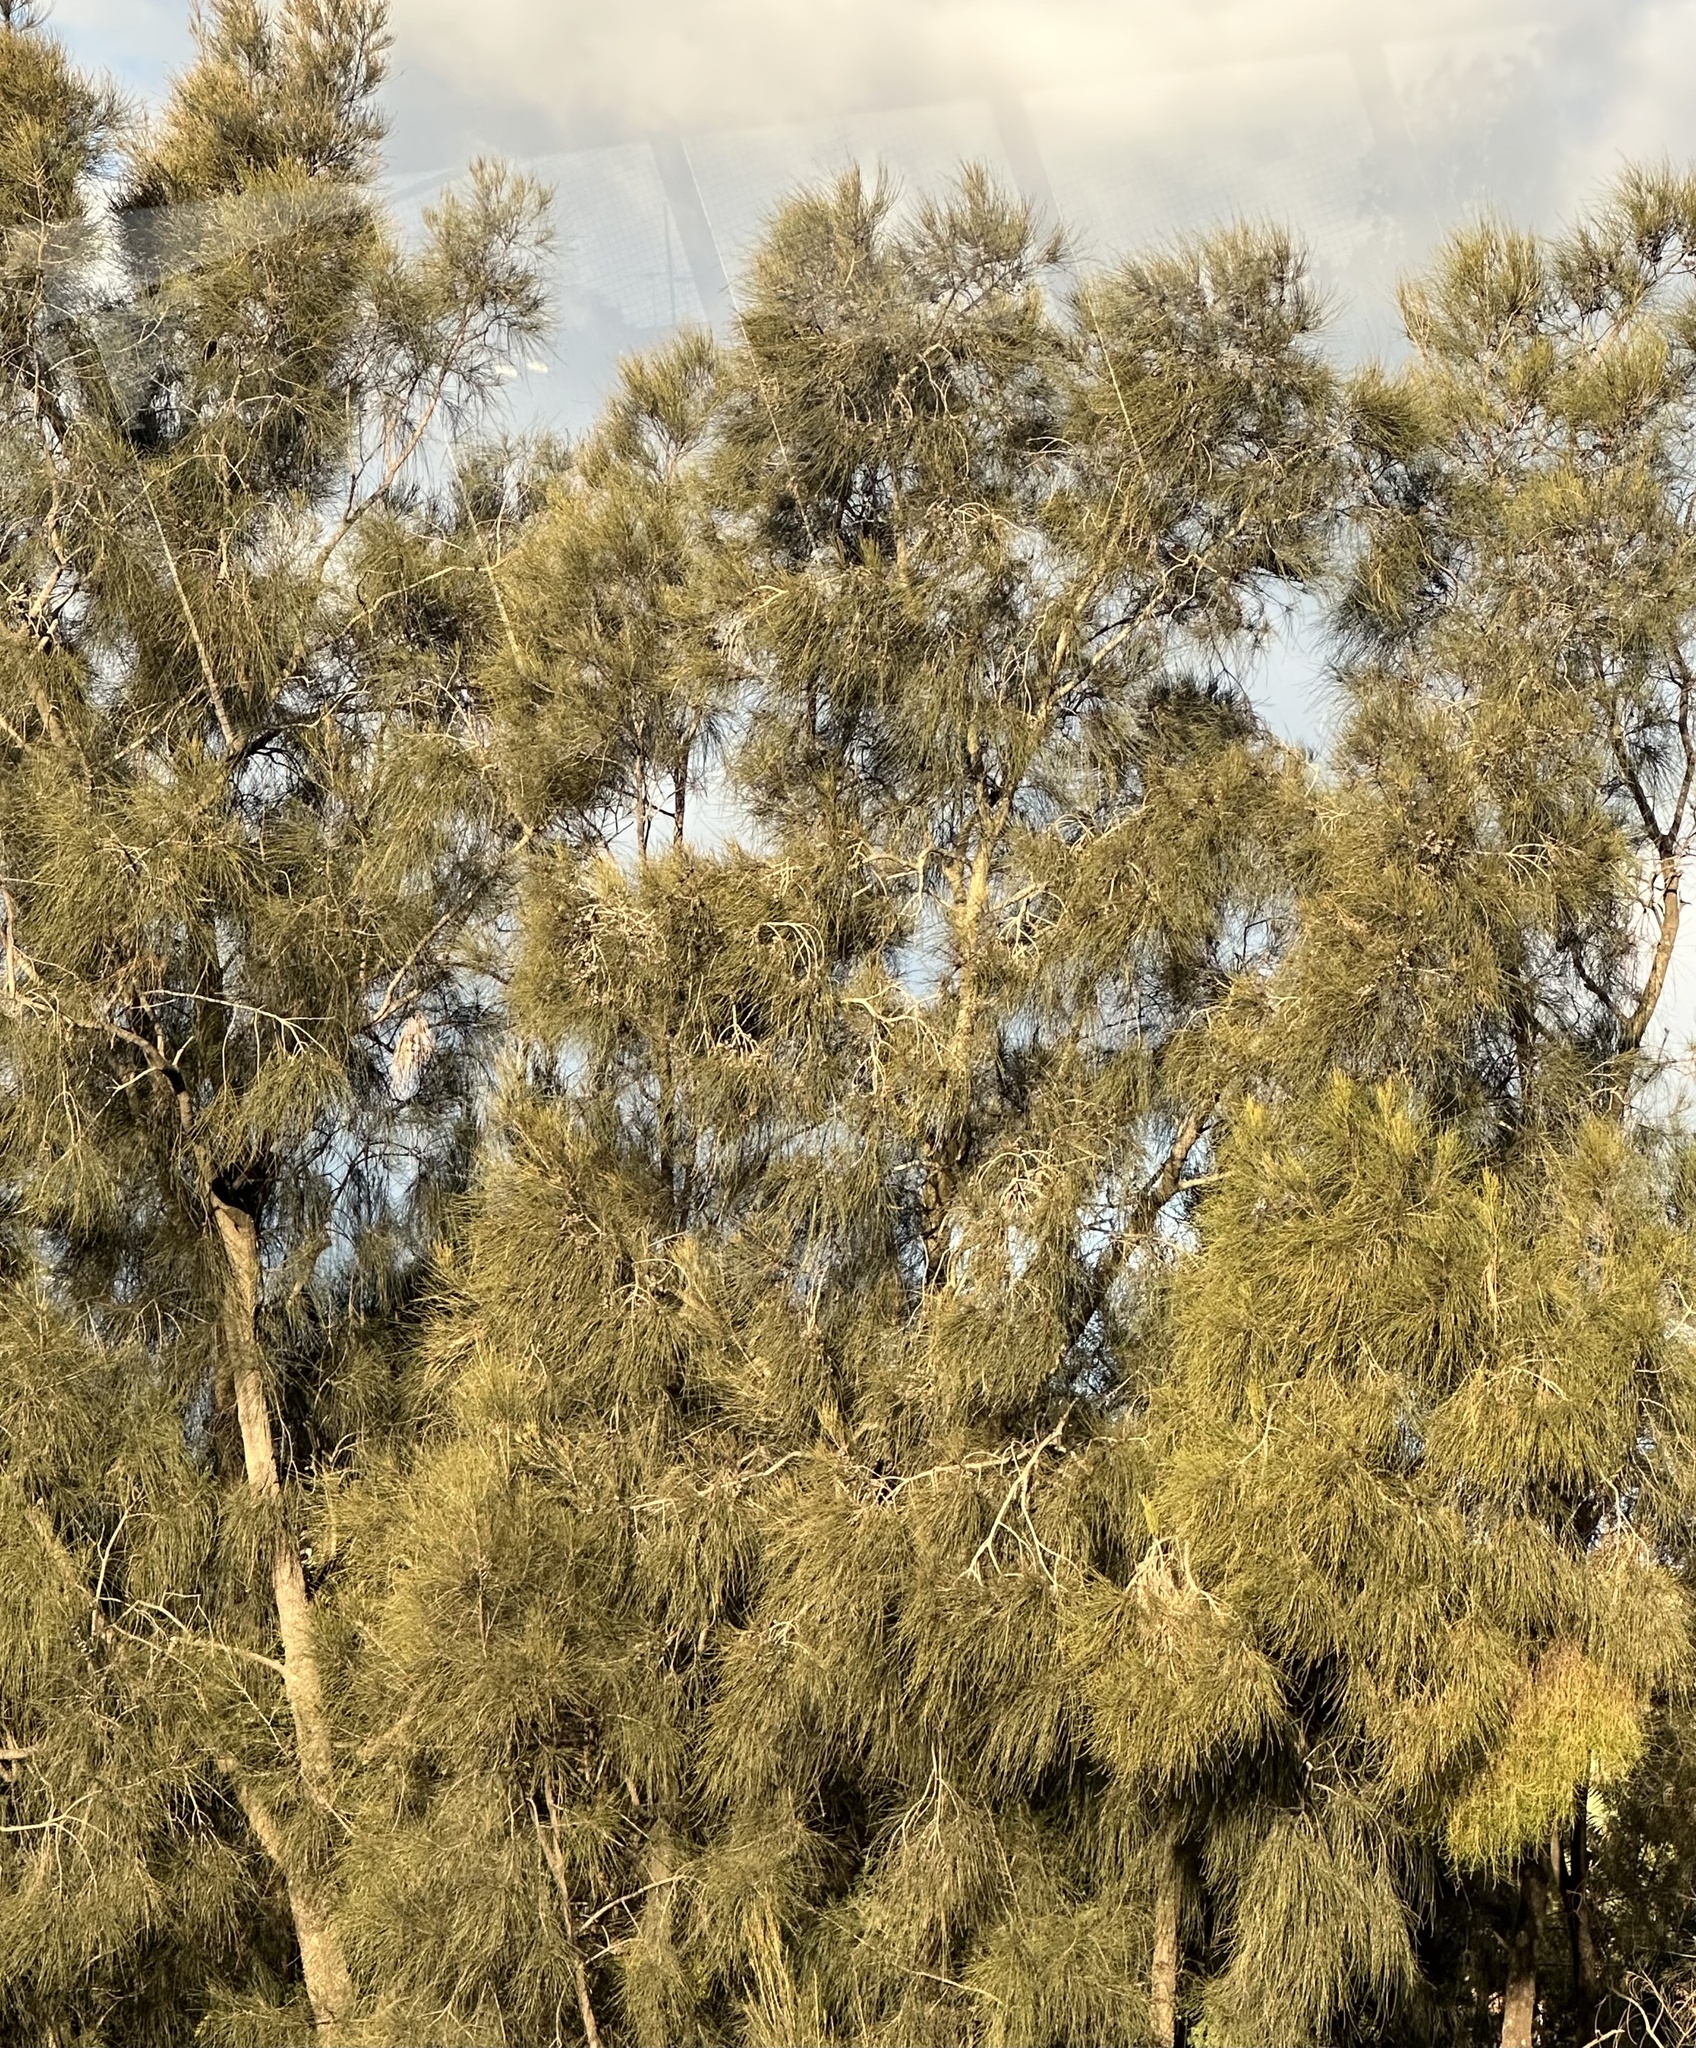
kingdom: Plantae
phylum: Tracheophyta
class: Magnoliopsida
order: Santalales
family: Santalaceae
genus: Exocarpos
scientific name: Exocarpos cupressiformis
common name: Cherry ballart
